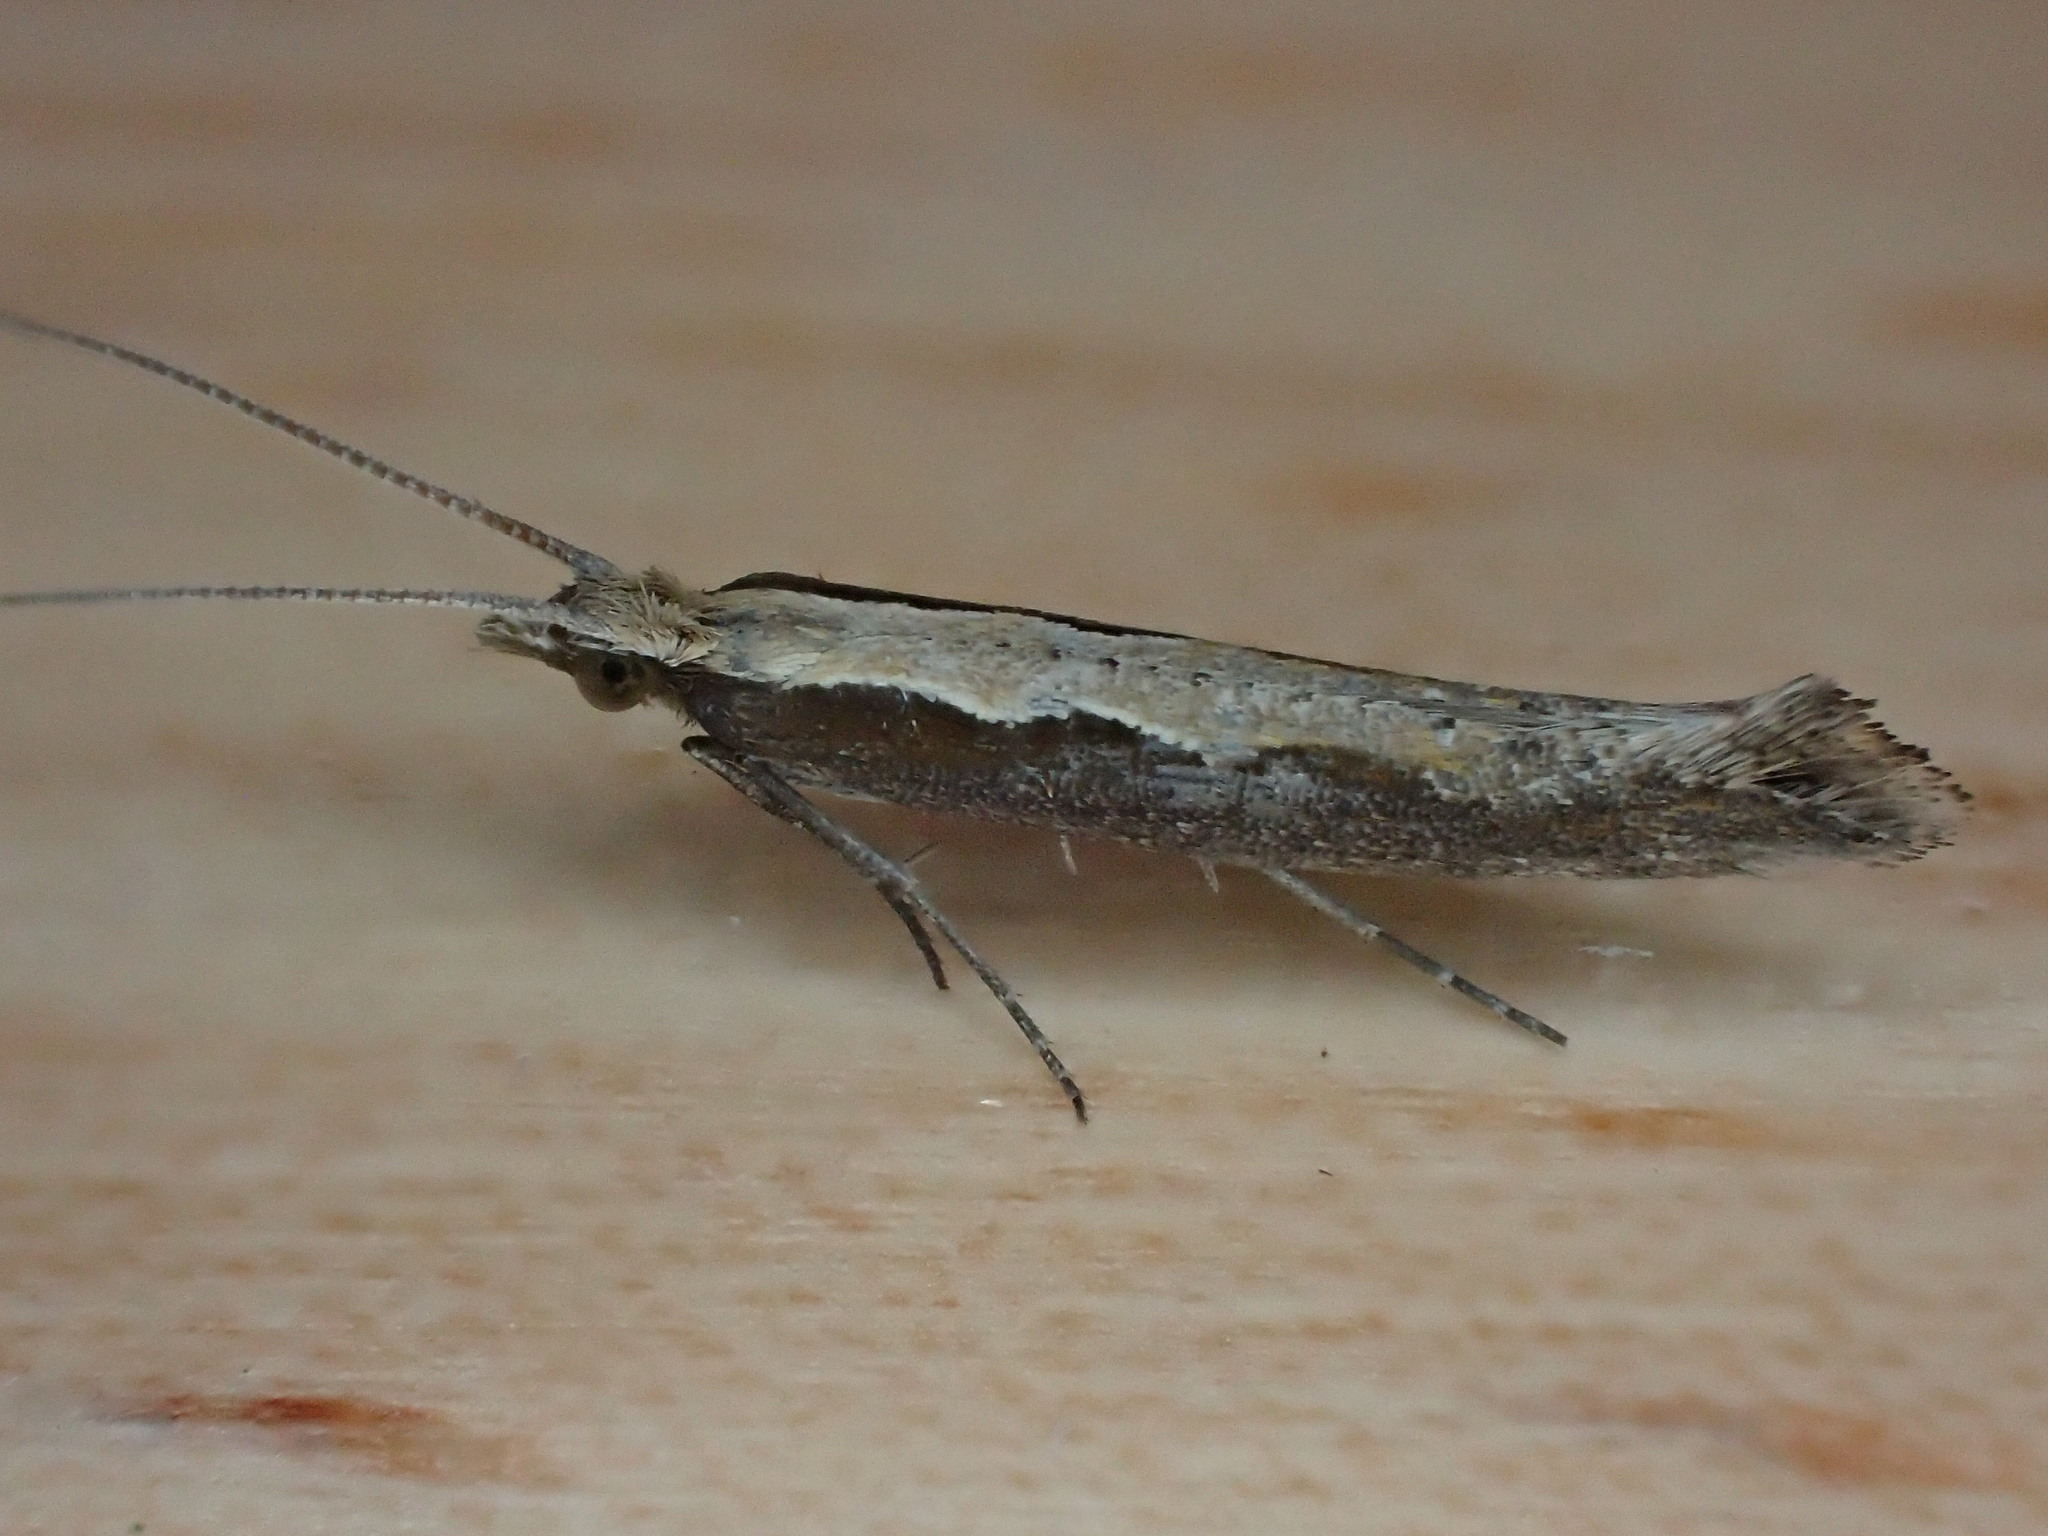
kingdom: Animalia
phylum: Arthropoda
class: Insecta
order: Lepidoptera
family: Plutellidae
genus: Plutella
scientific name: Plutella xylostella
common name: Diamond-back moth
